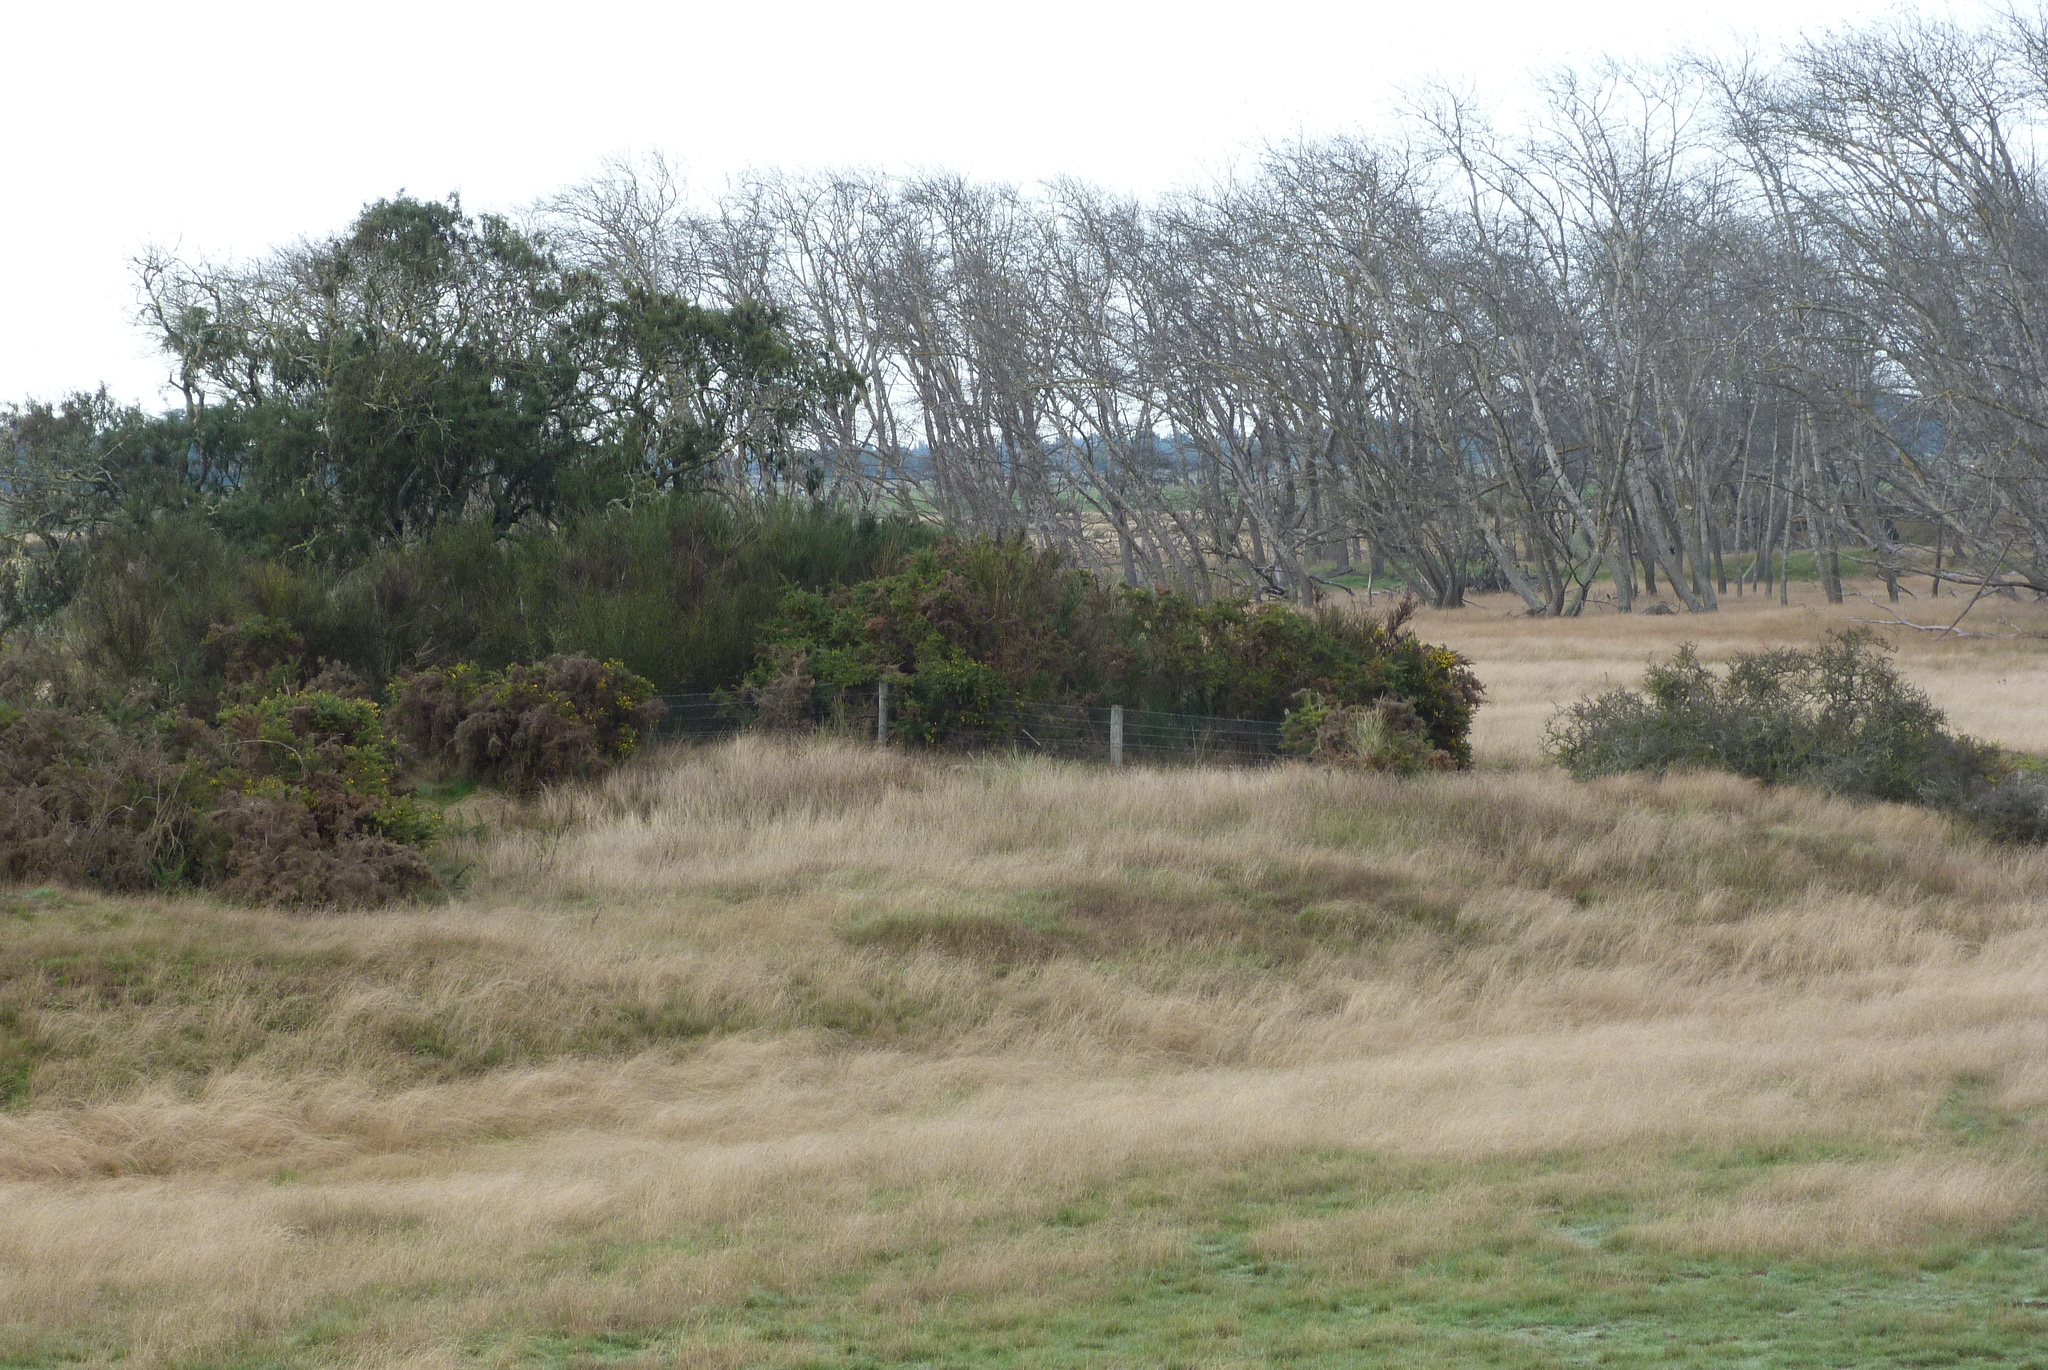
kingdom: Plantae
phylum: Tracheophyta
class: Magnoliopsida
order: Fabales
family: Fabaceae
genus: Sophora
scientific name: Sophora microphylla
